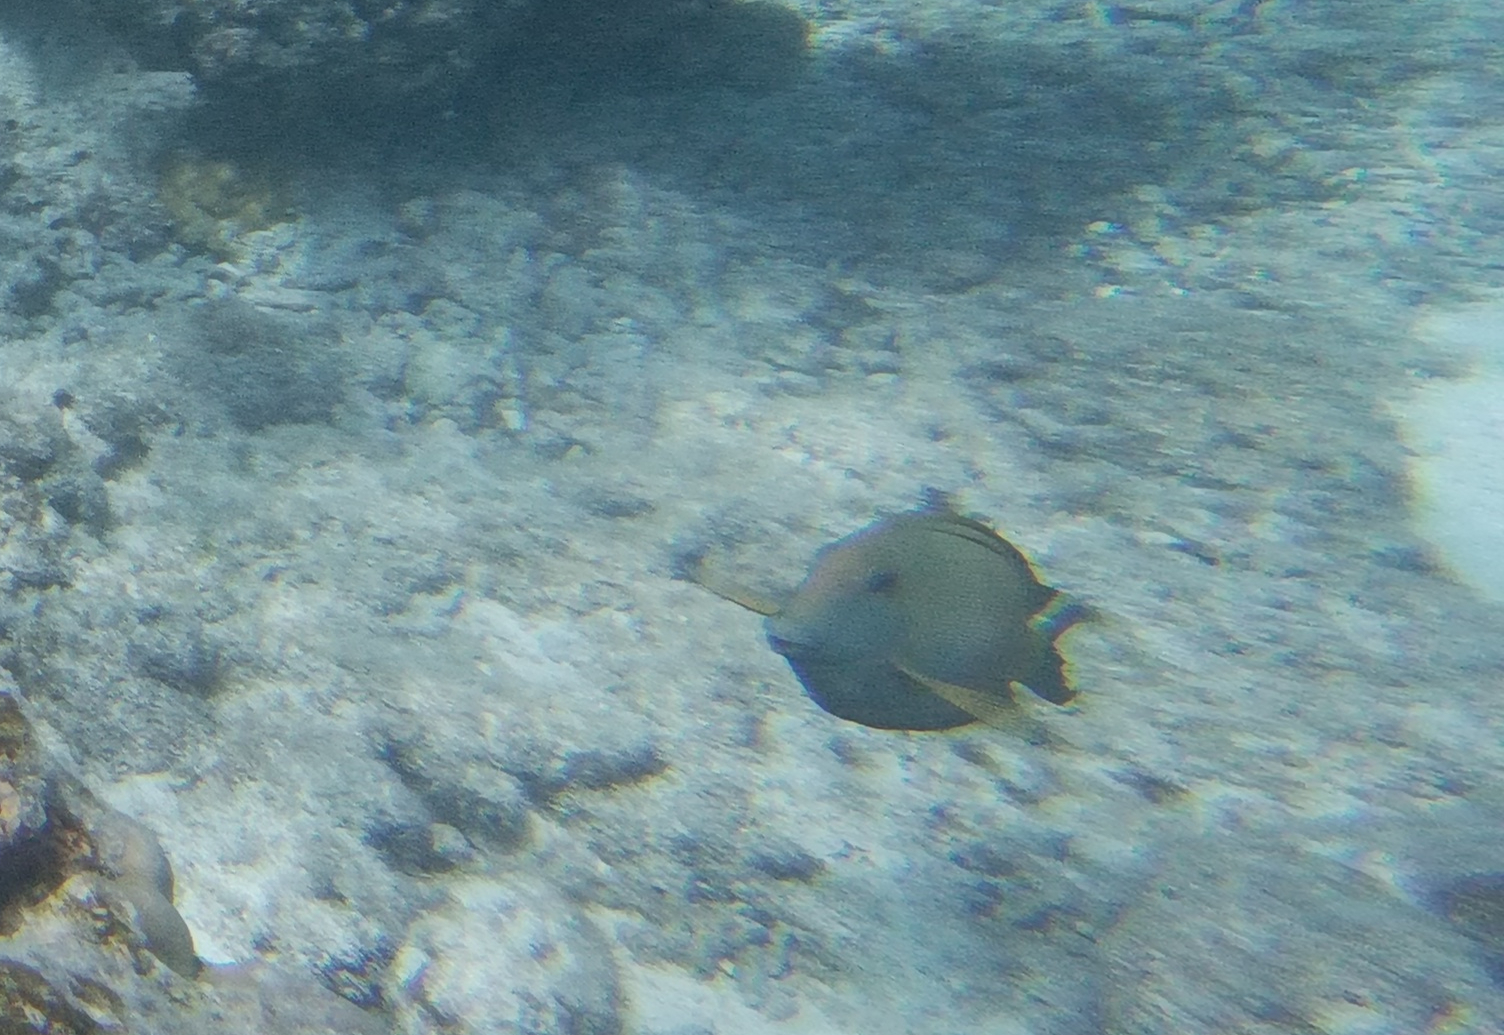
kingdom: Animalia
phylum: Chordata
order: Perciformes
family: Acanthuridae
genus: Ctenochaetus
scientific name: Ctenochaetus striatus
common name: Bristle-toothed surgeonfish
